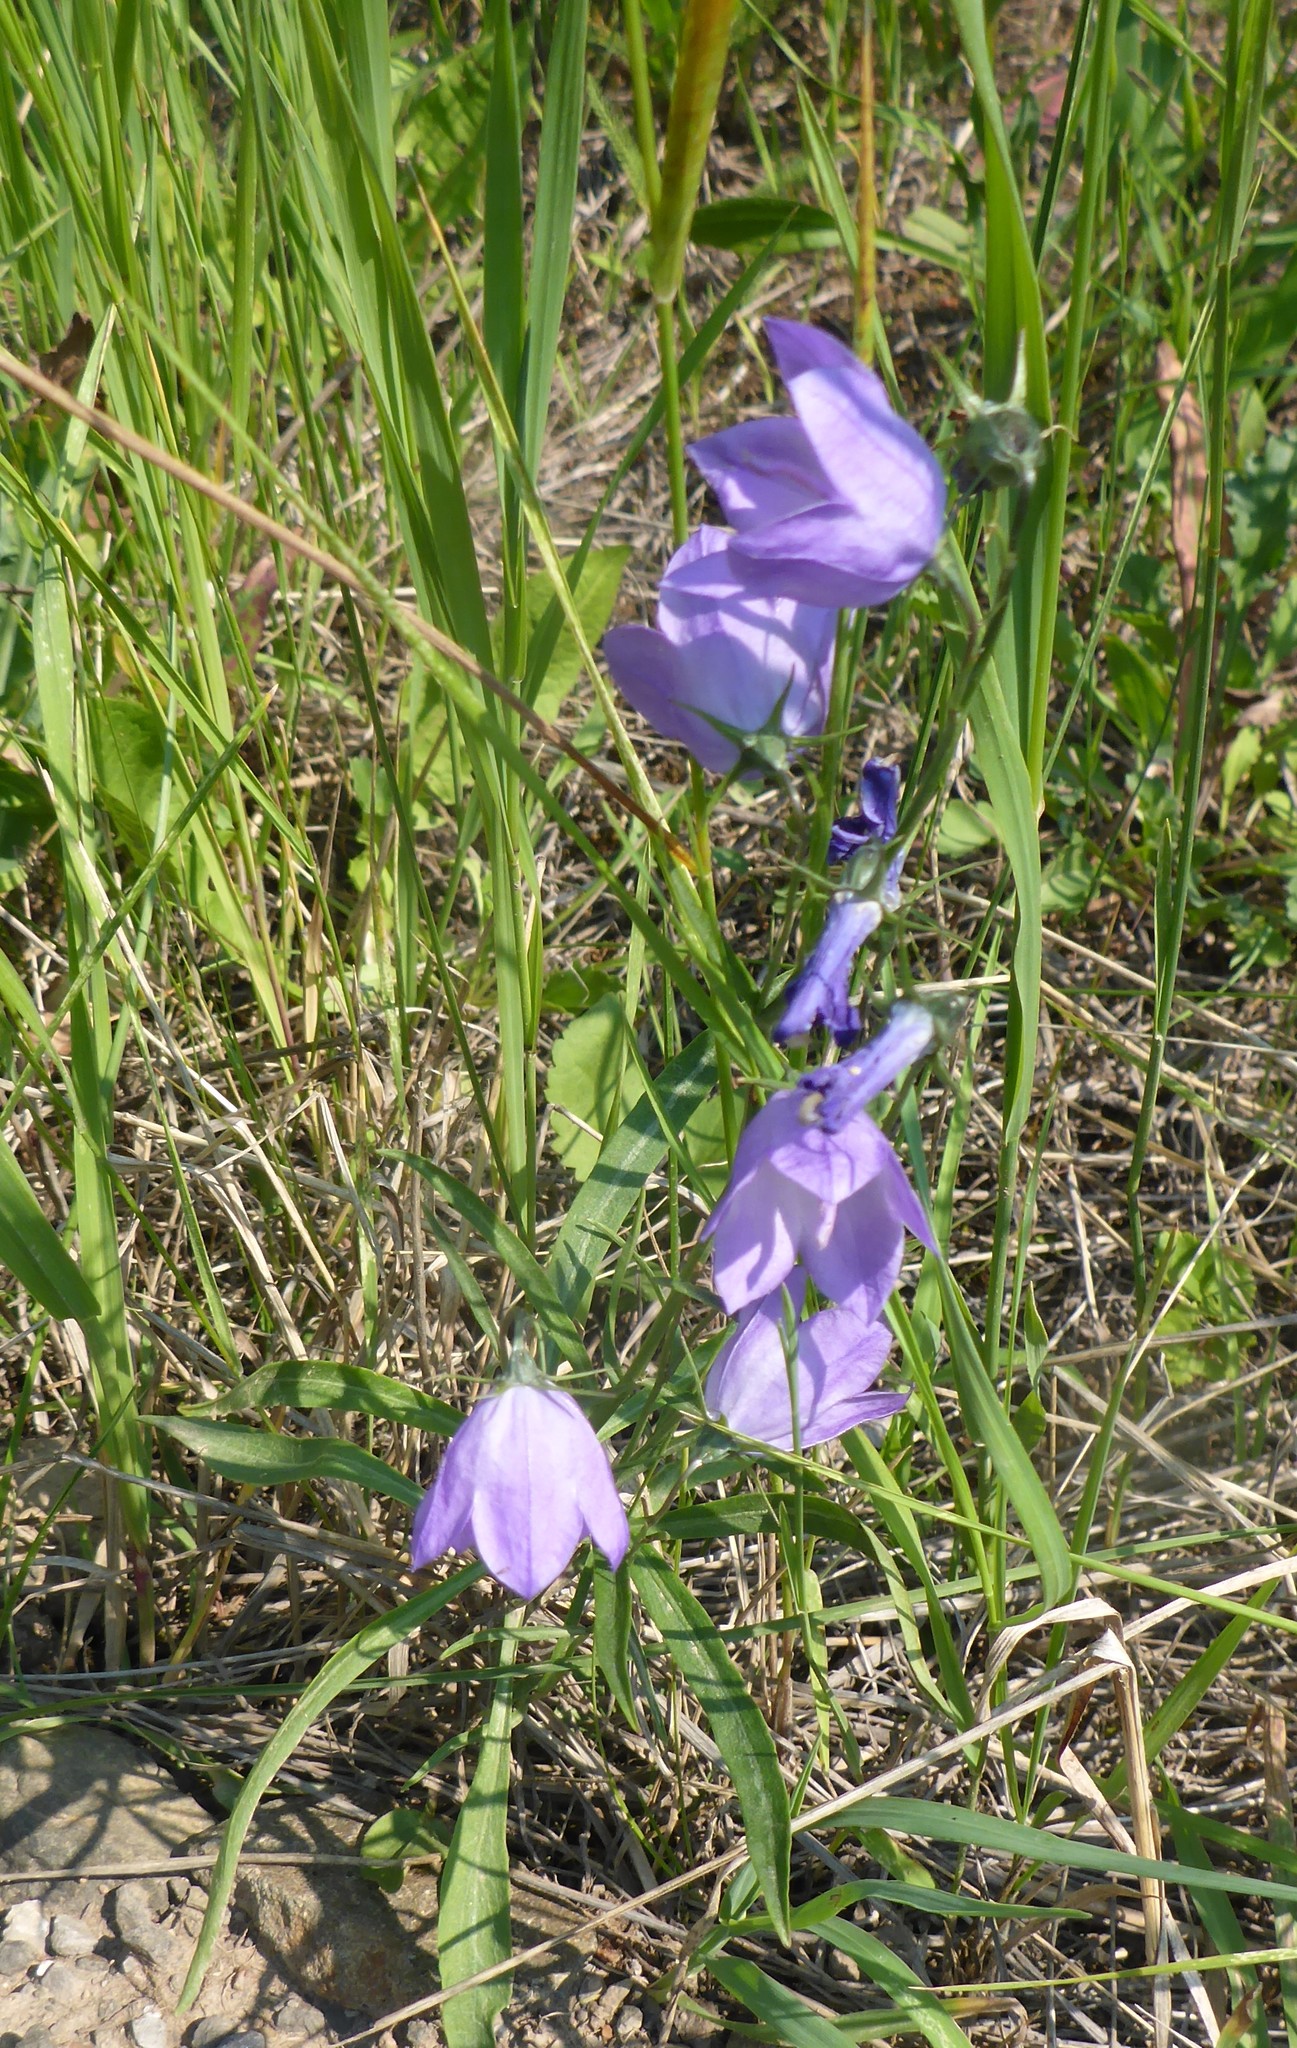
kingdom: Plantae
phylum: Tracheophyta
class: Magnoliopsida
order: Asterales
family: Campanulaceae
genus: Campanula
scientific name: Campanula alaskana
